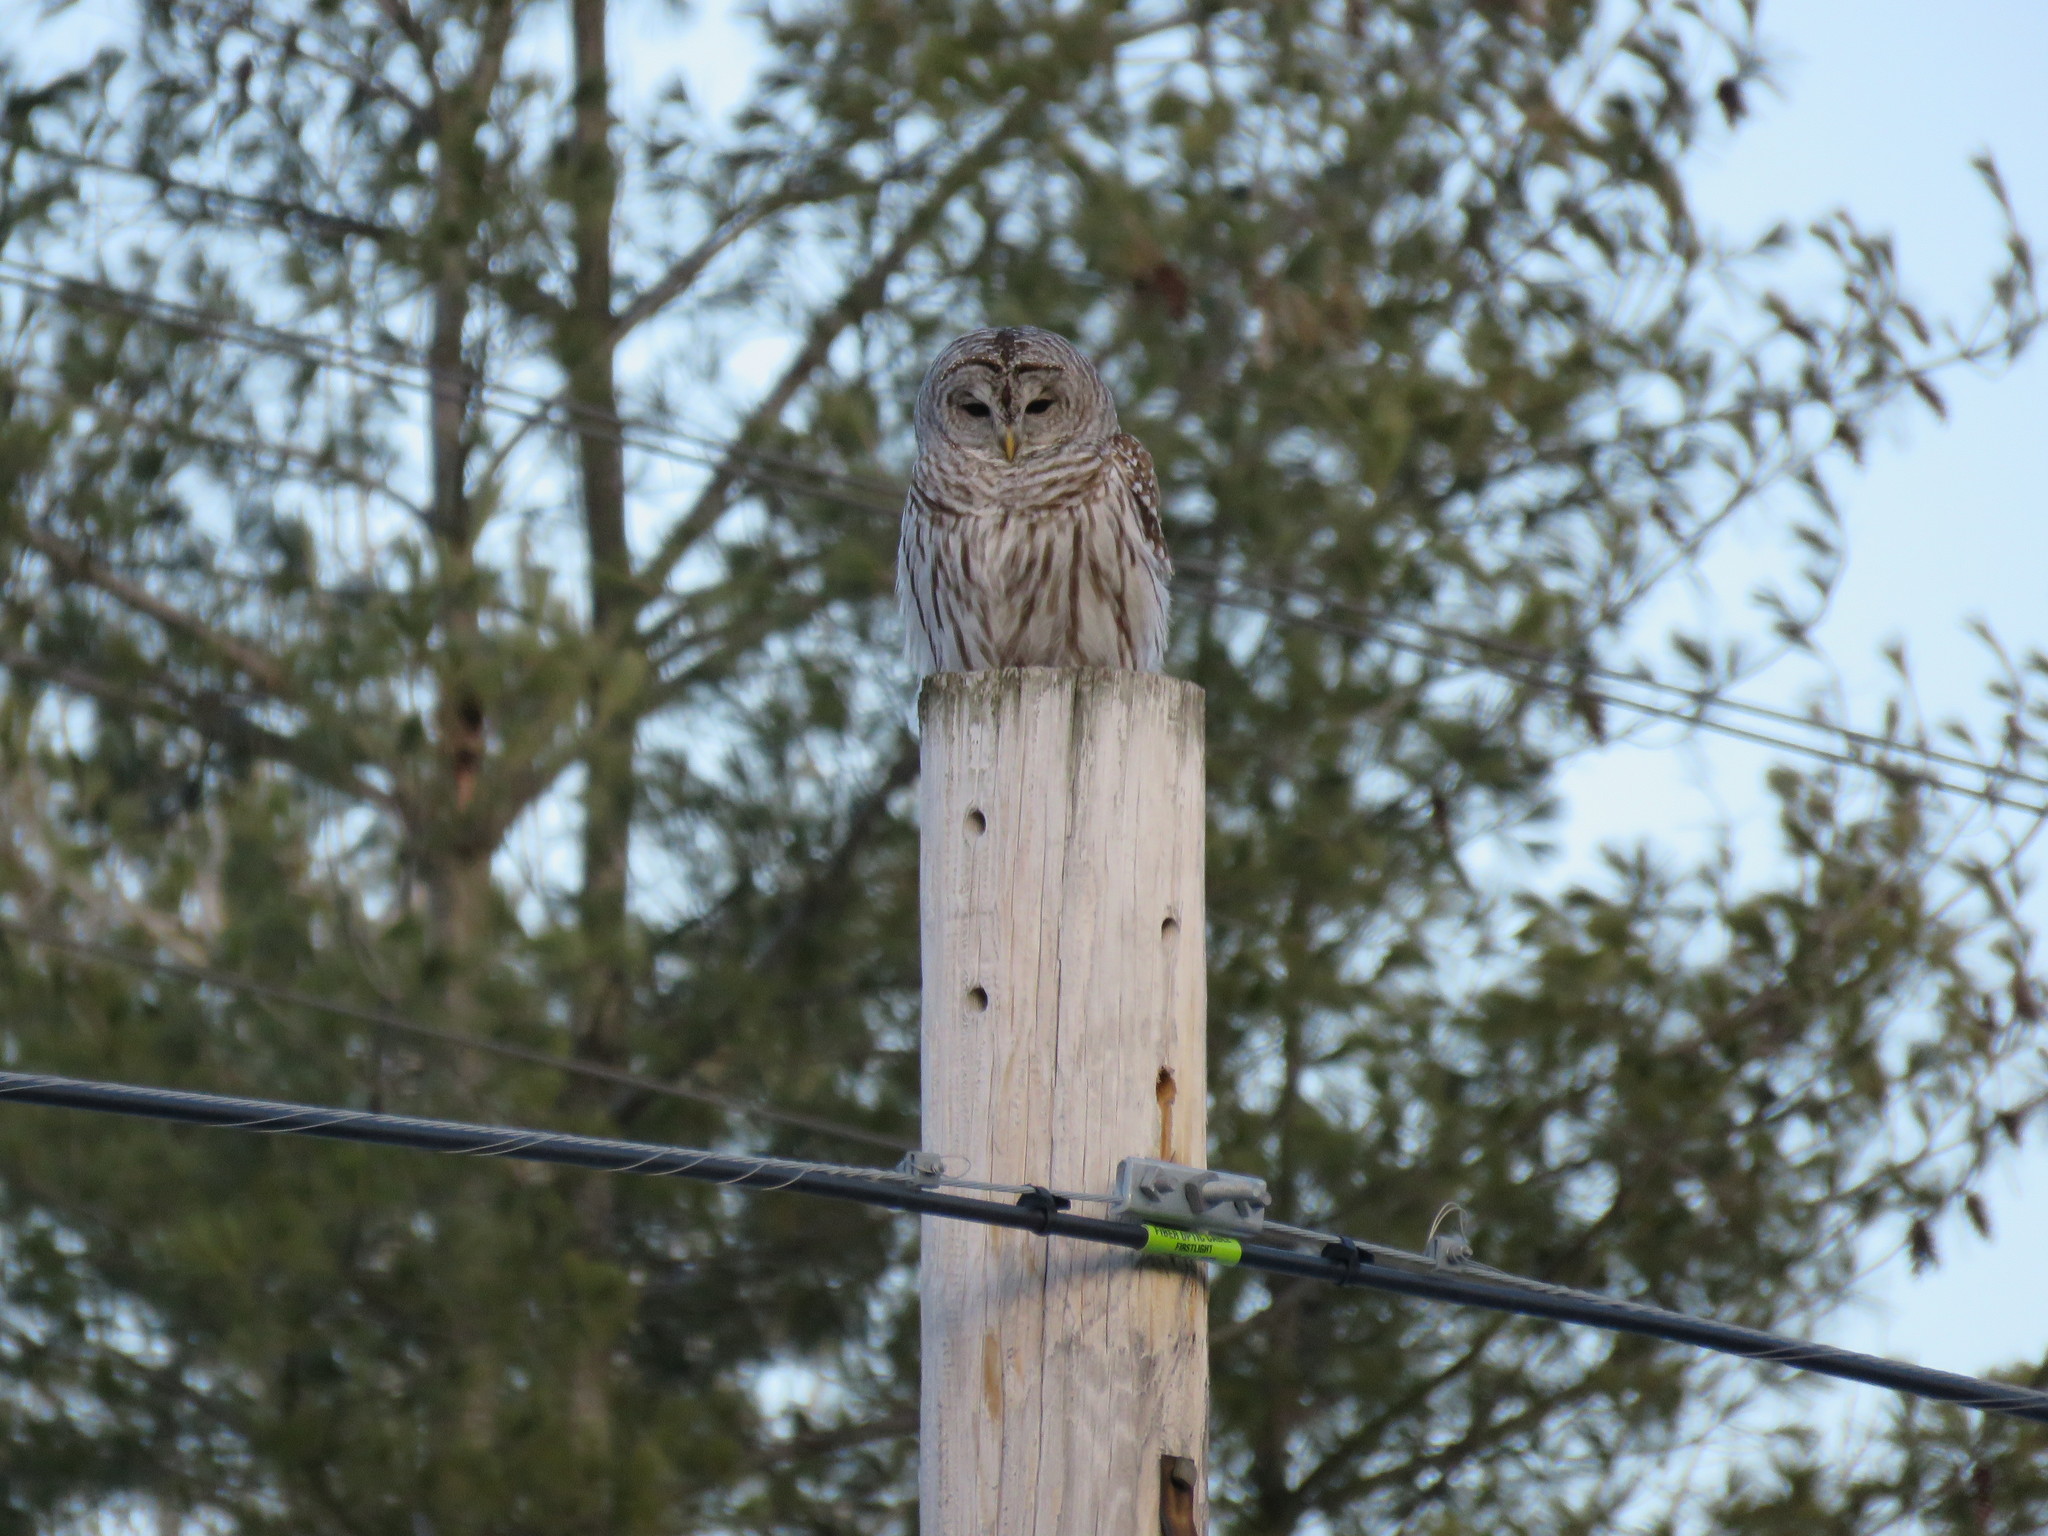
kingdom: Animalia
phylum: Chordata
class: Aves
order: Strigiformes
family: Strigidae
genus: Strix
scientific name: Strix varia
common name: Barred owl
